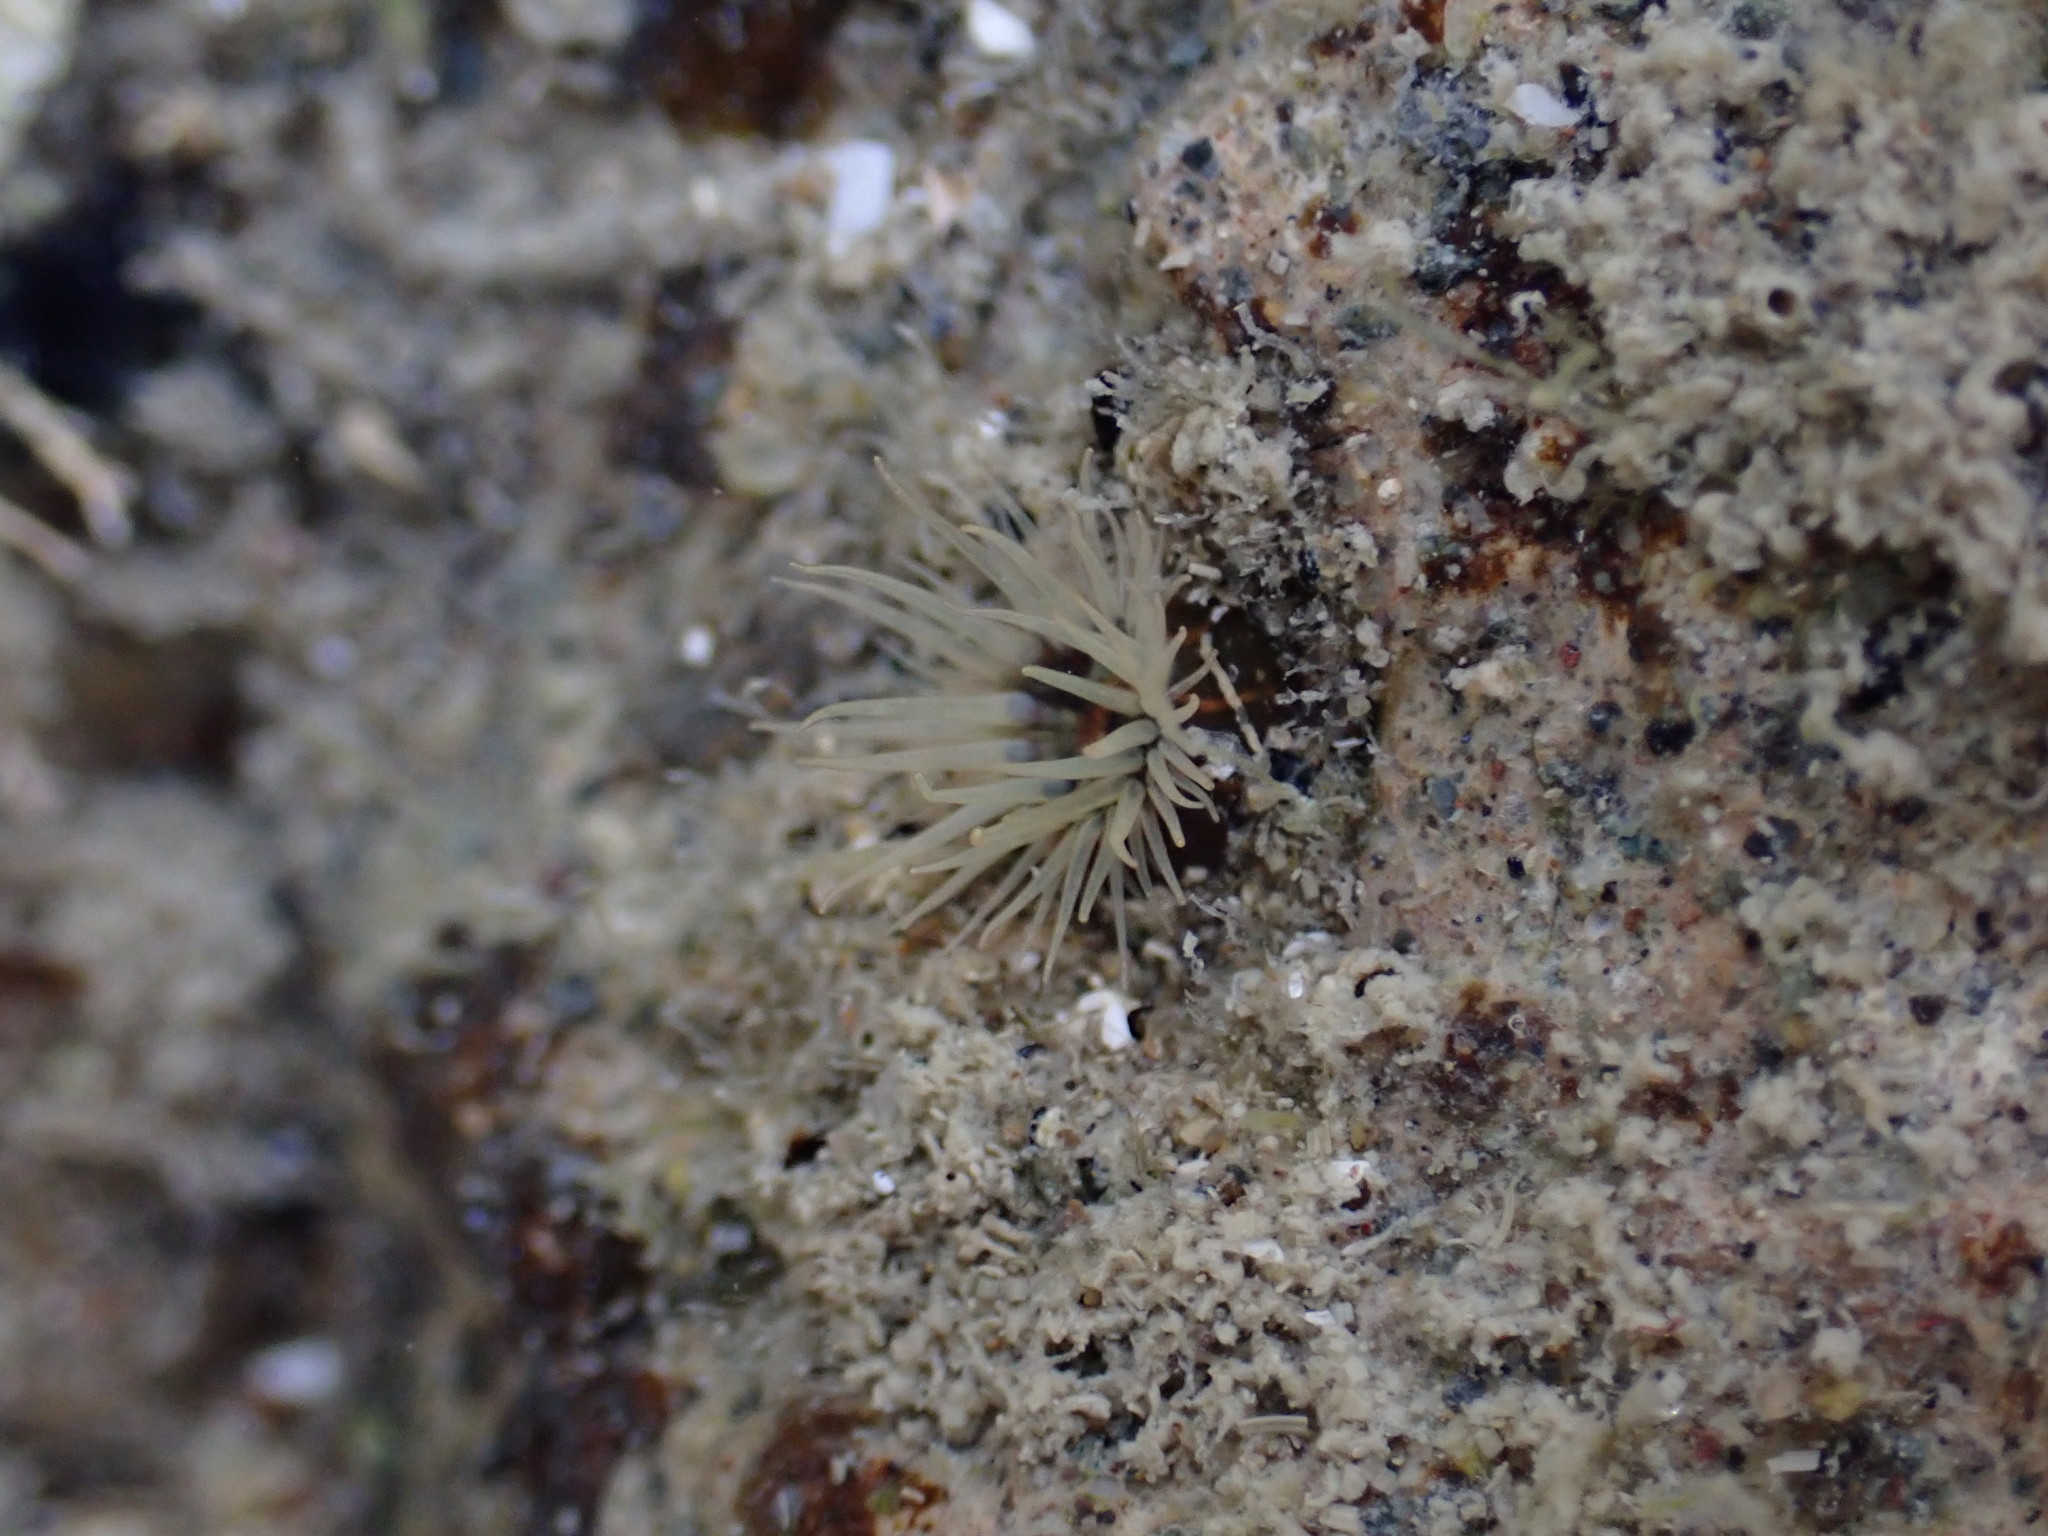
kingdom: Animalia
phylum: Cnidaria
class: Anthozoa
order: Actiniaria
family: Diadumenidae
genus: Diadumene
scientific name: Diadumene lineata
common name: Orange-striped anemone
